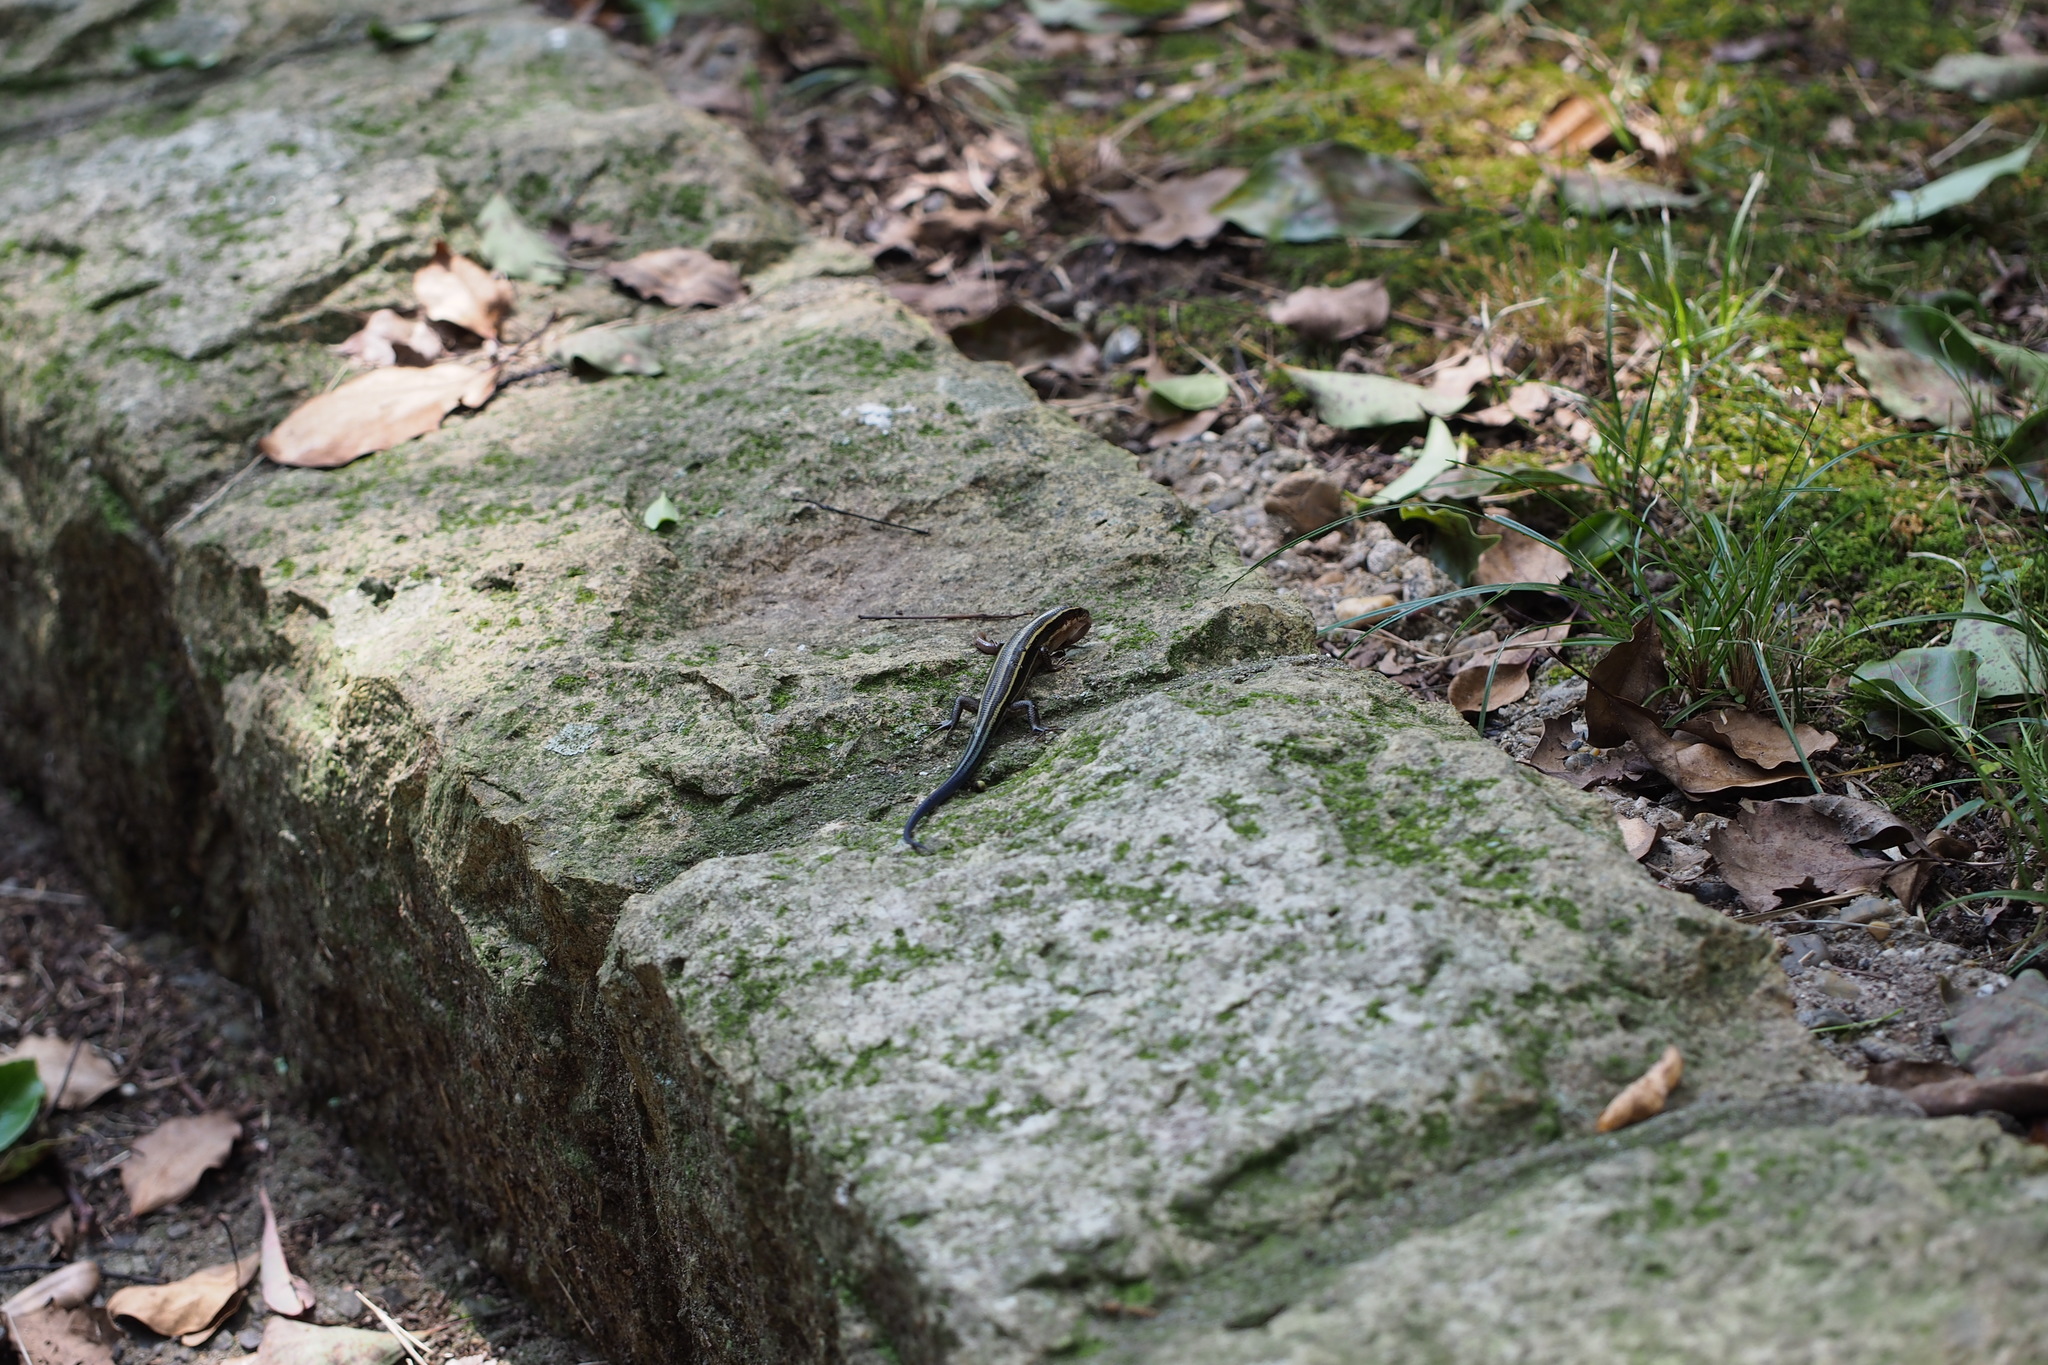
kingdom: Animalia
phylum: Chordata
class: Squamata
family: Scincidae
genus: Plestiodon
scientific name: Plestiodon japonicus
